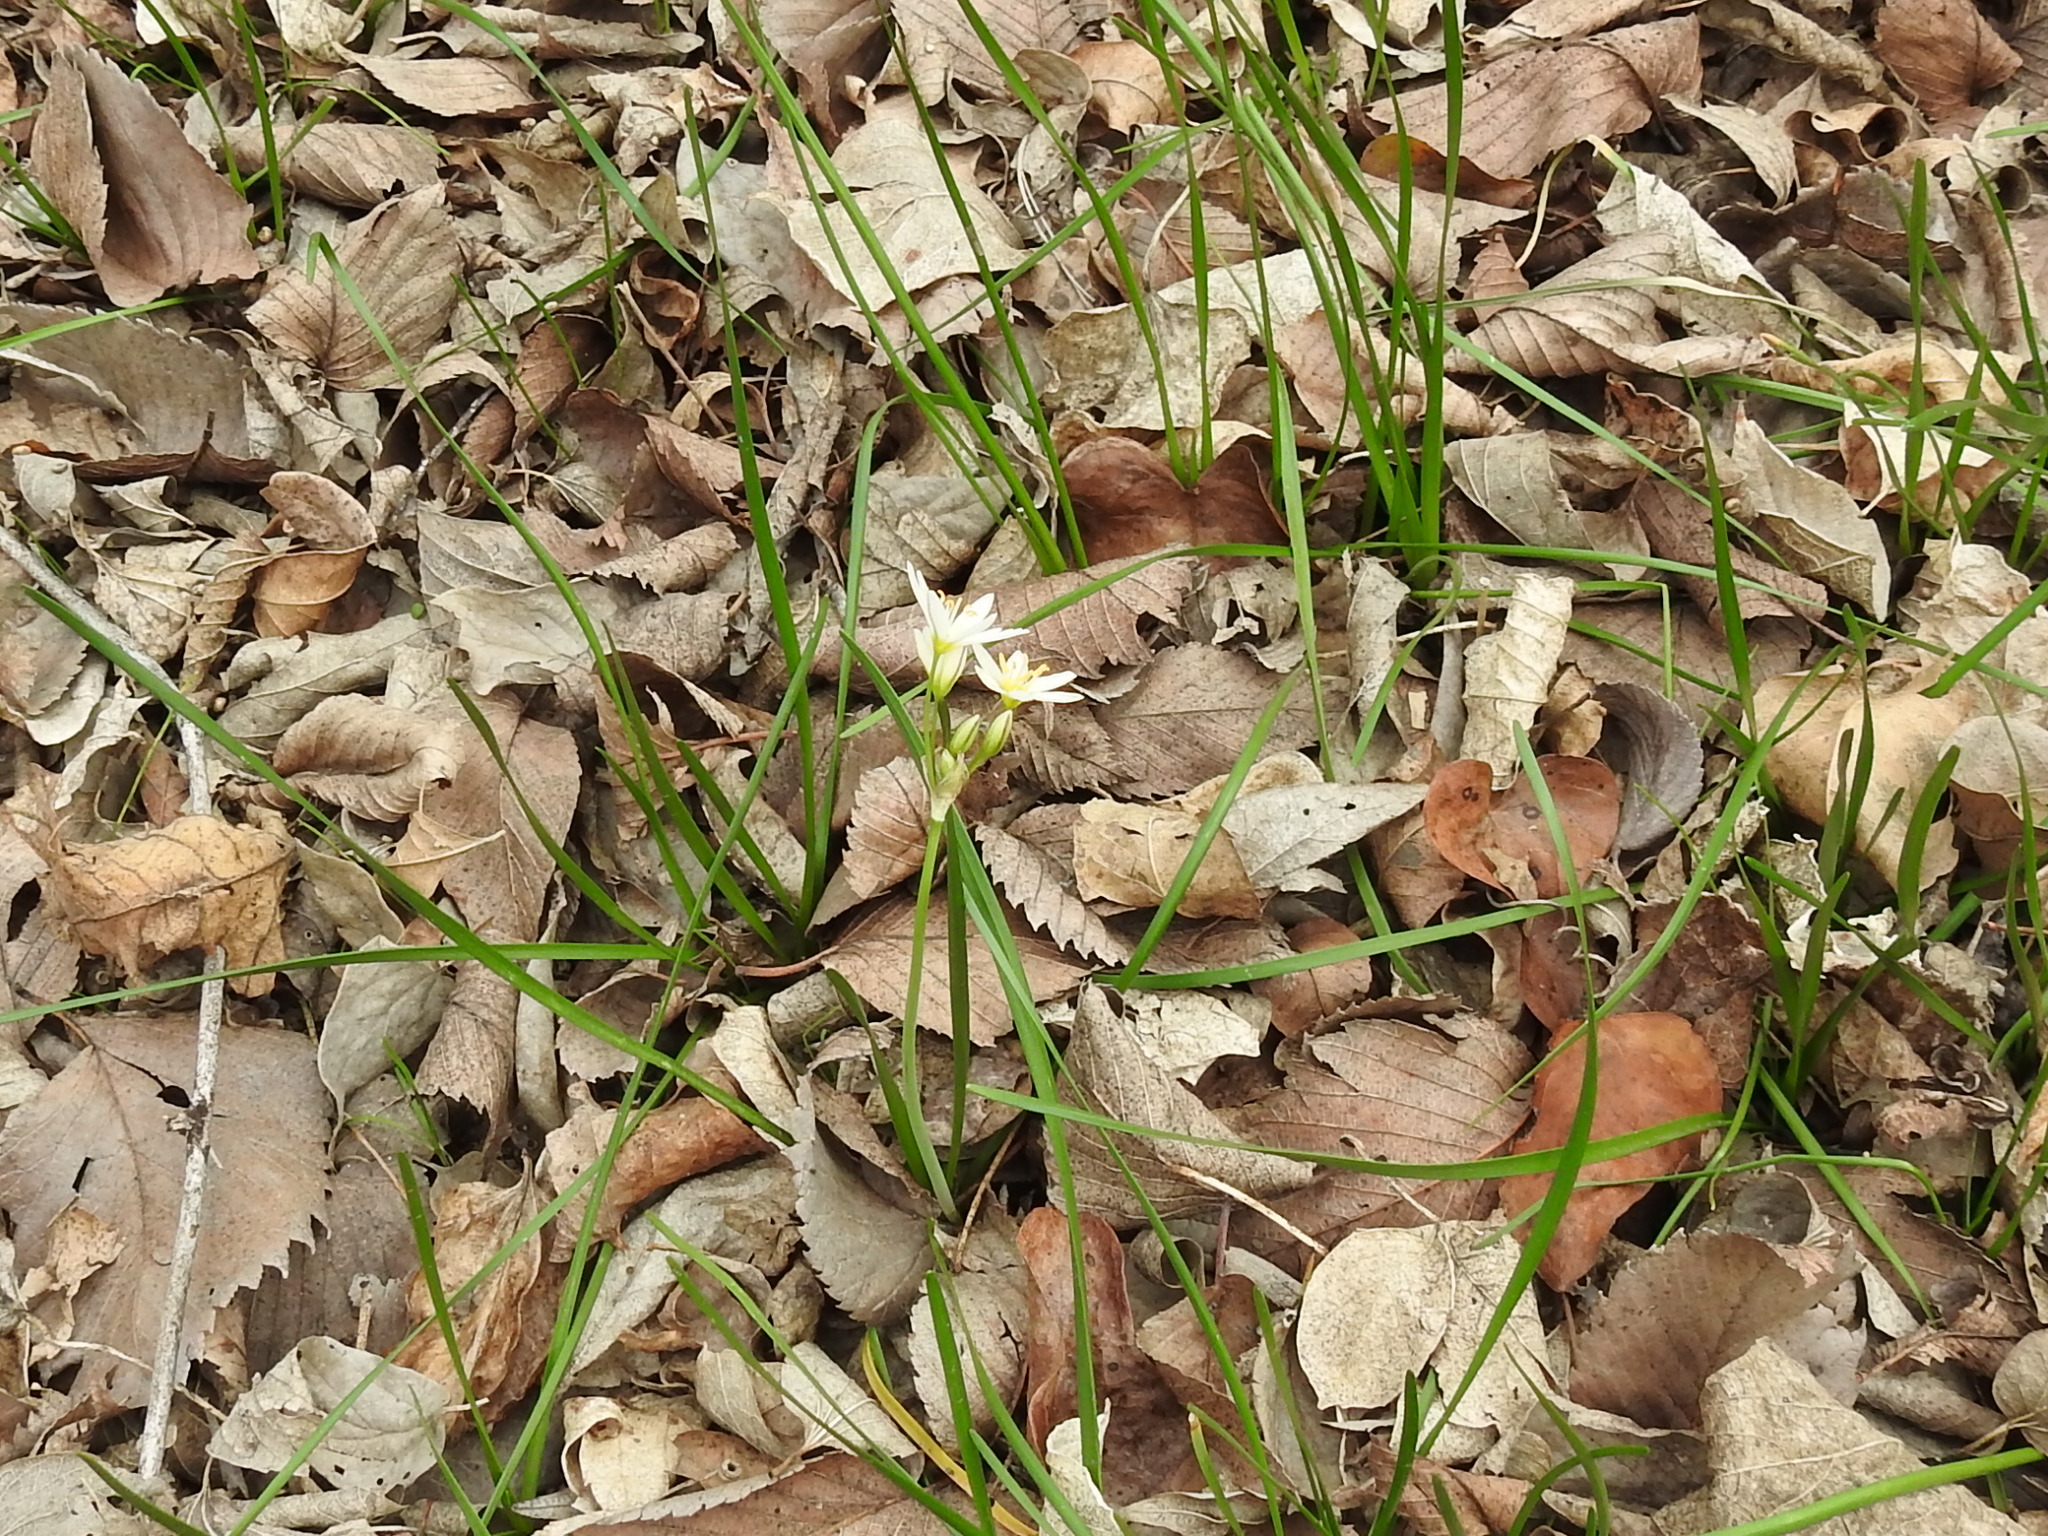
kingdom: Plantae
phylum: Tracheophyta
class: Liliopsida
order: Asparagales
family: Amaryllidaceae
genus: Nothoscordum
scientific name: Nothoscordum bivalve
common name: Crow-poison
